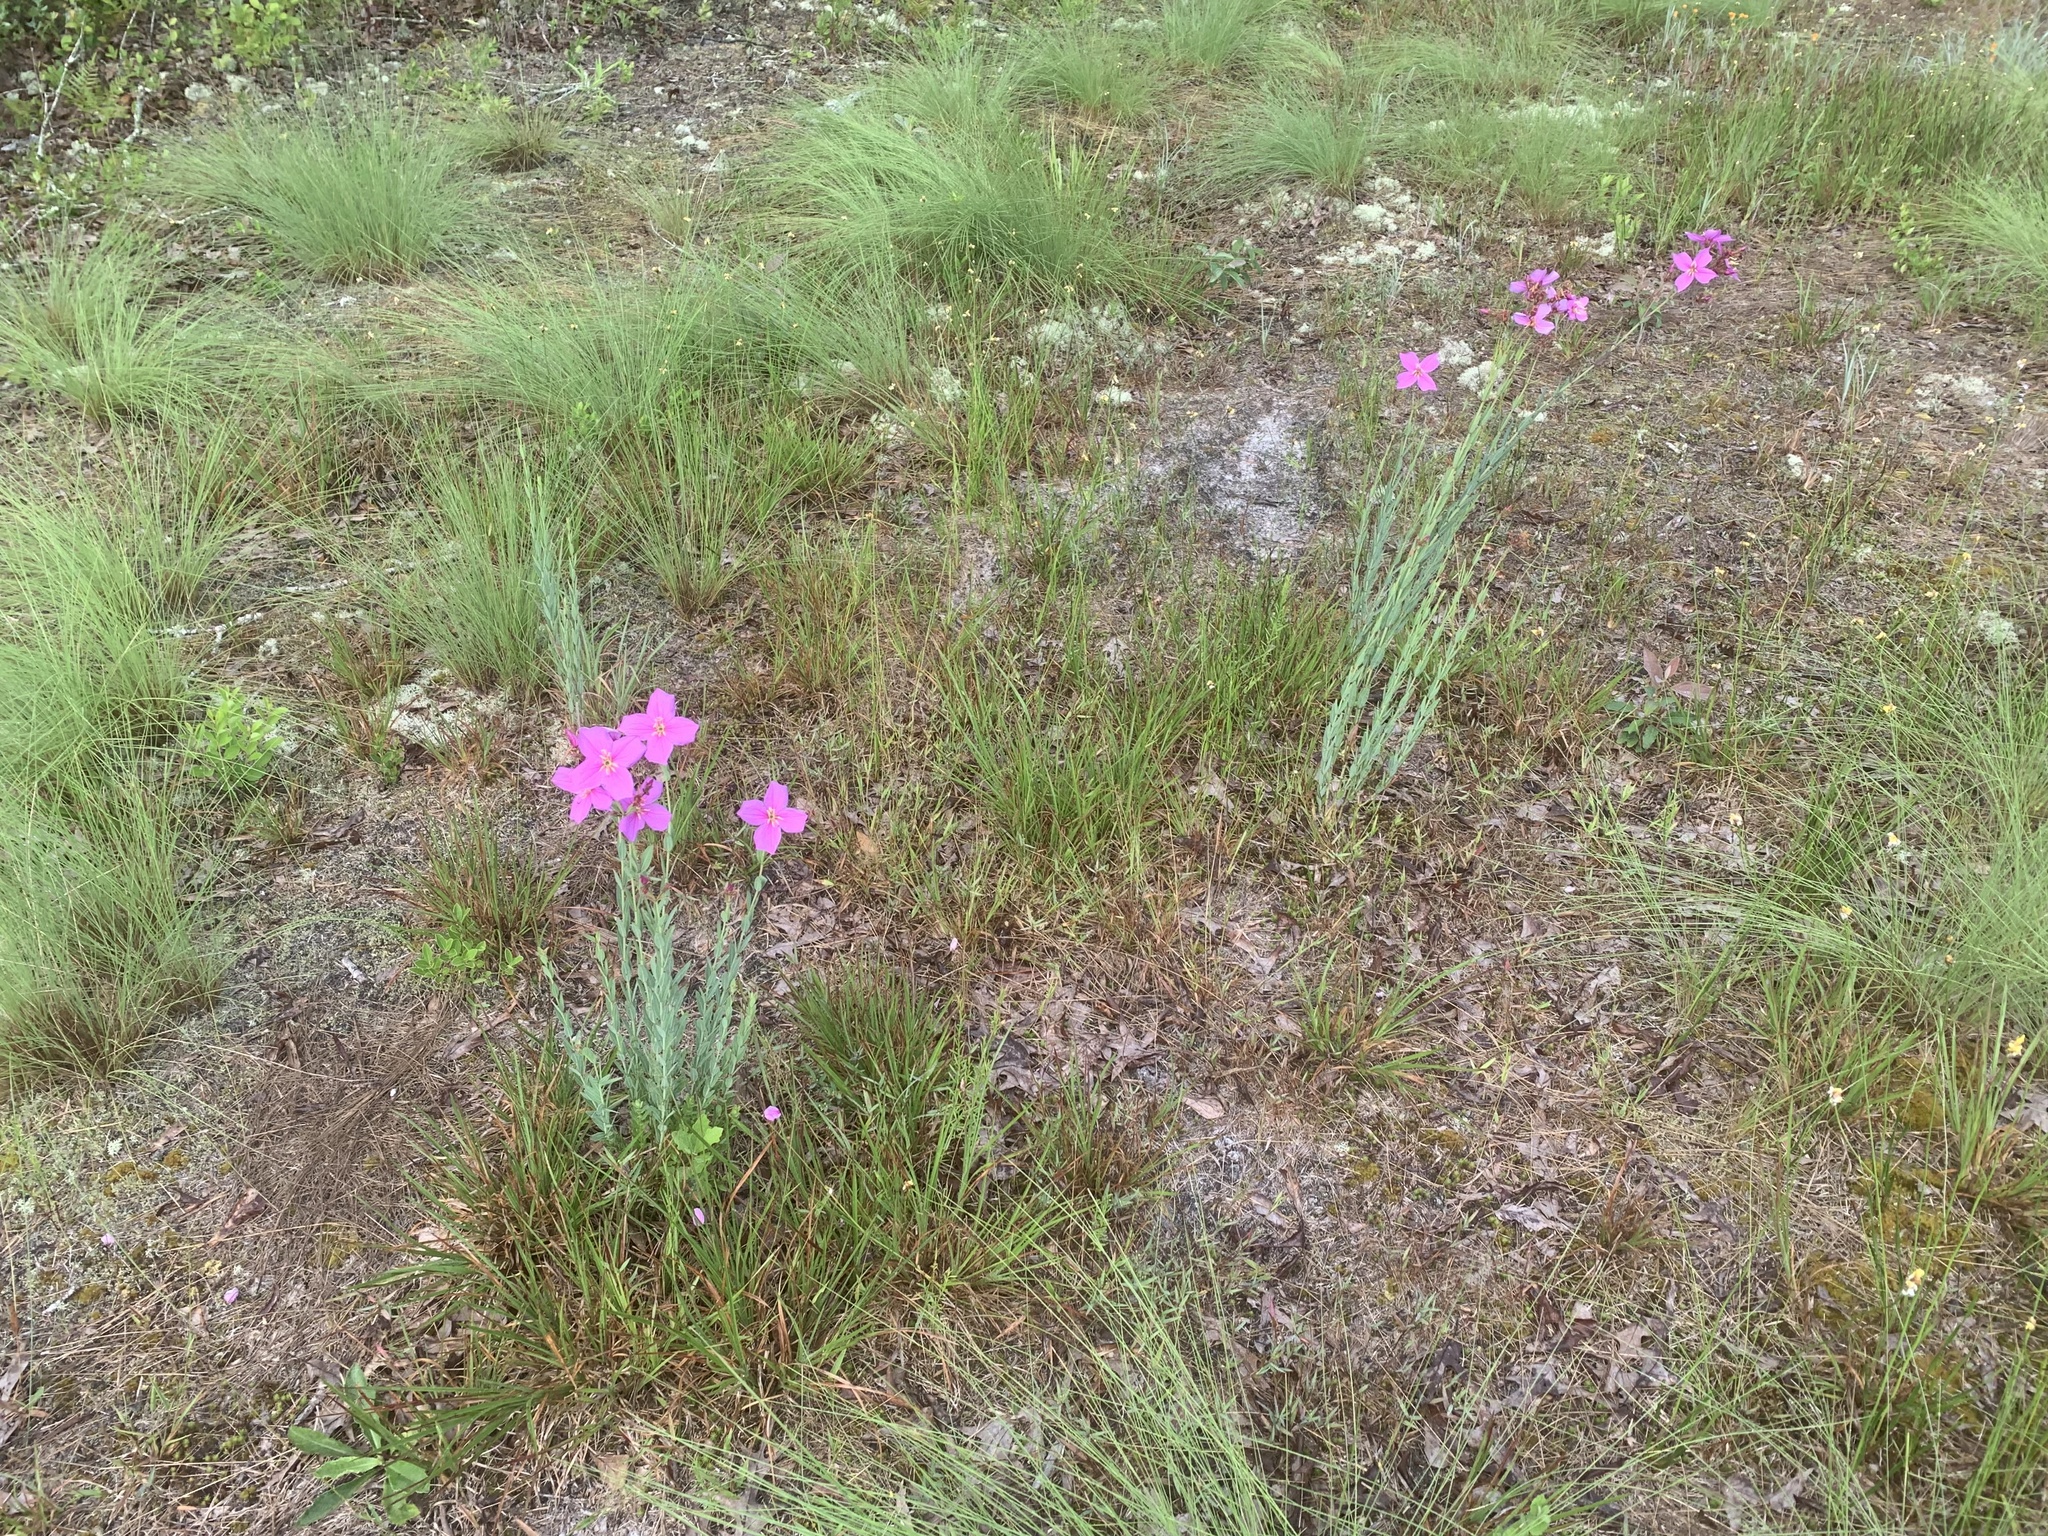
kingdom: Plantae
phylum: Tracheophyta
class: Magnoliopsida
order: Myrtales
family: Melastomataceae
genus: Rhexia
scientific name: Rhexia alifanus
